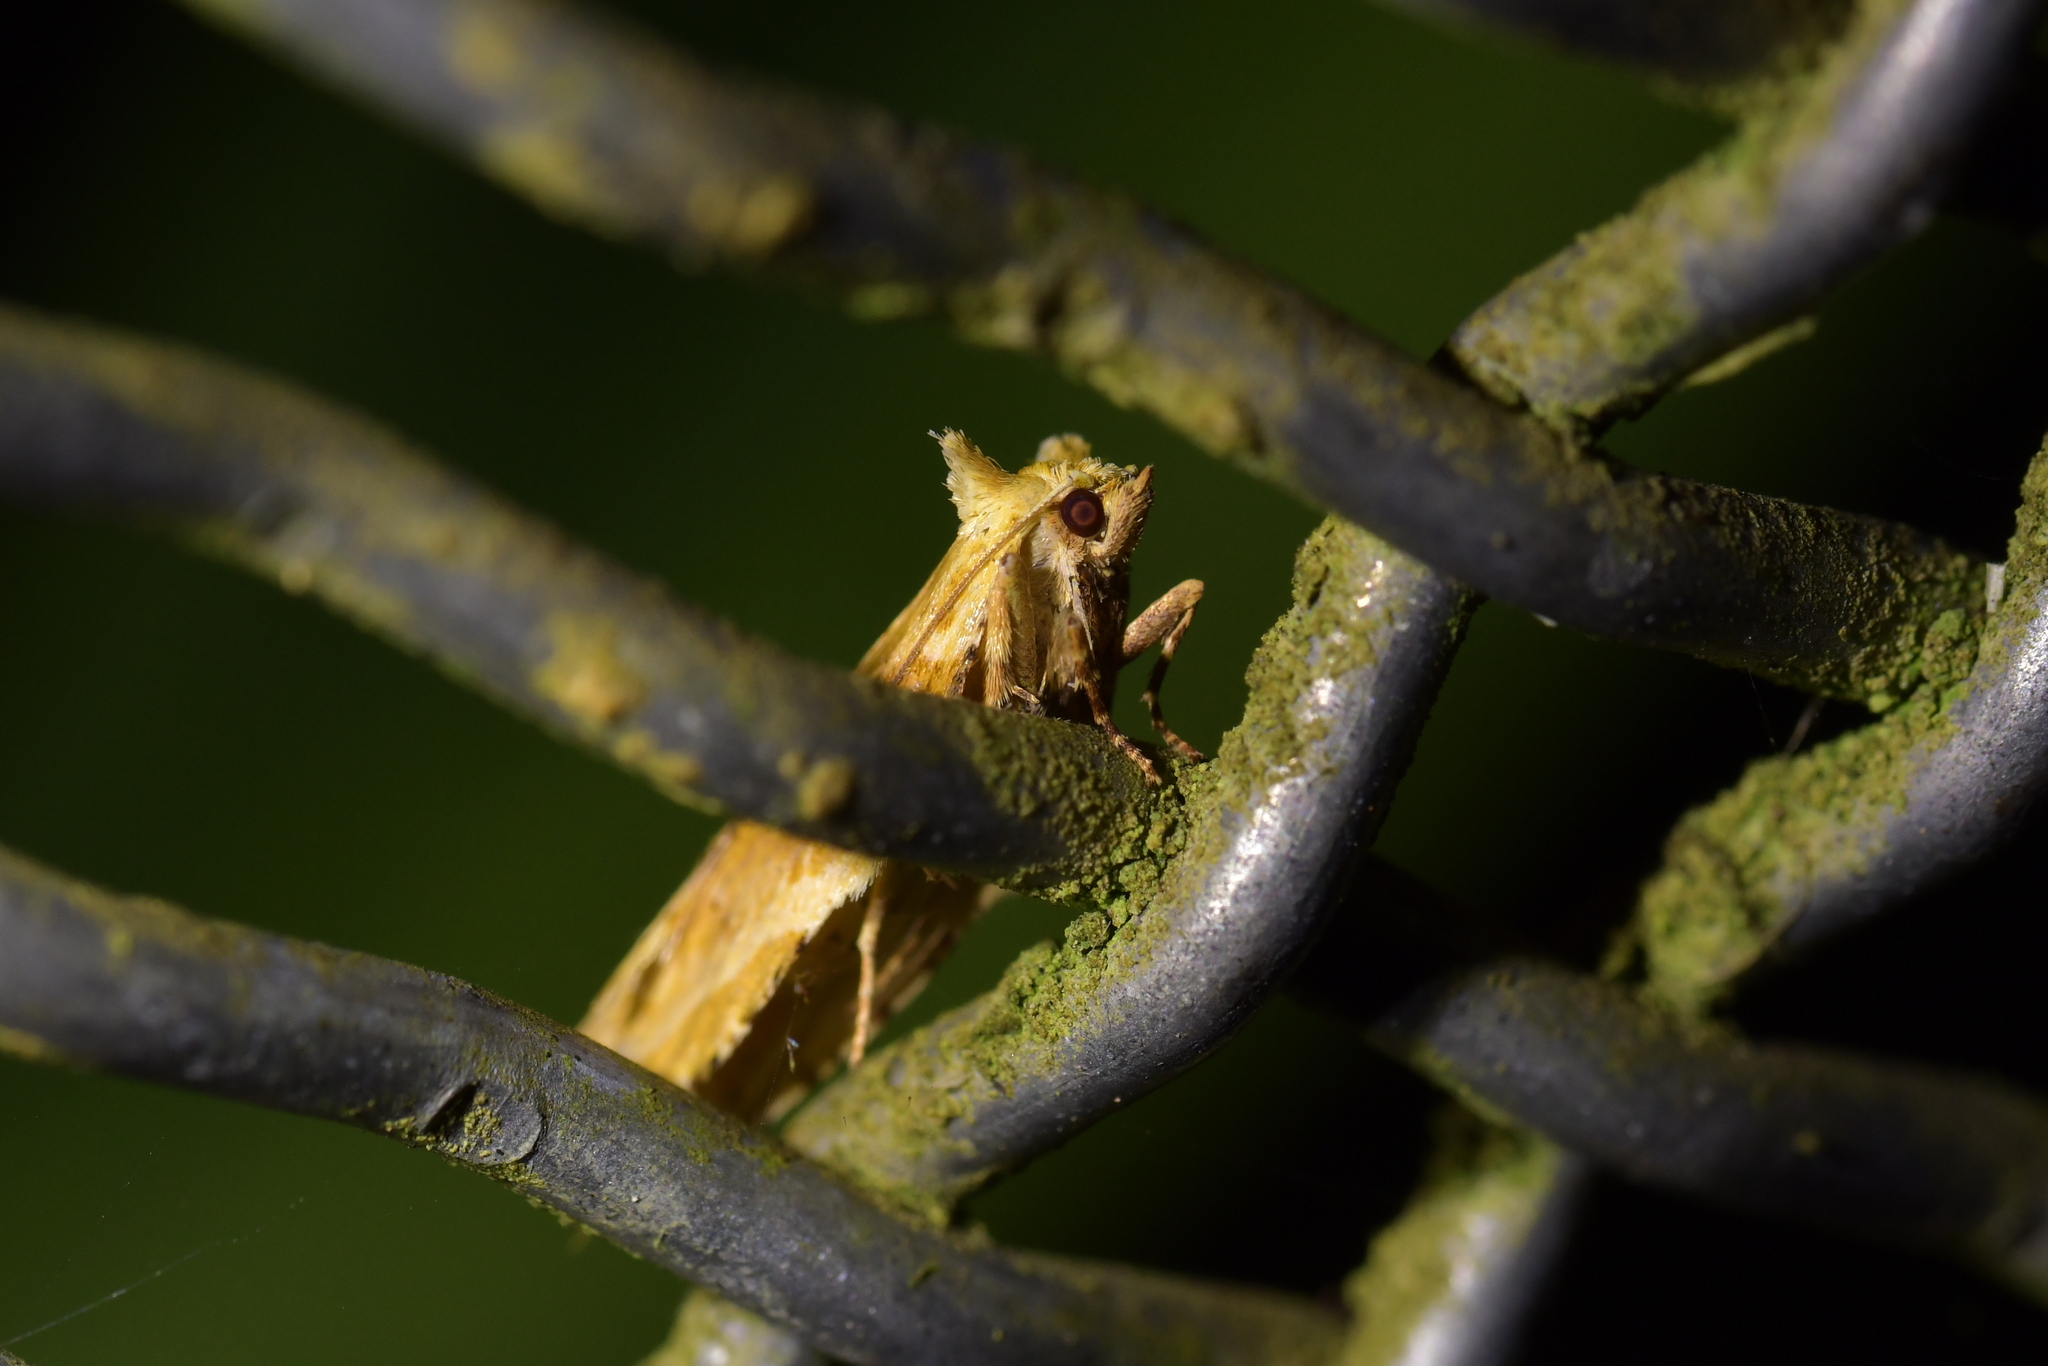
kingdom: Animalia
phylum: Arthropoda
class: Insecta
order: Lepidoptera
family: Tortricidae
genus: Epalxiphora
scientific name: Epalxiphora axenana
